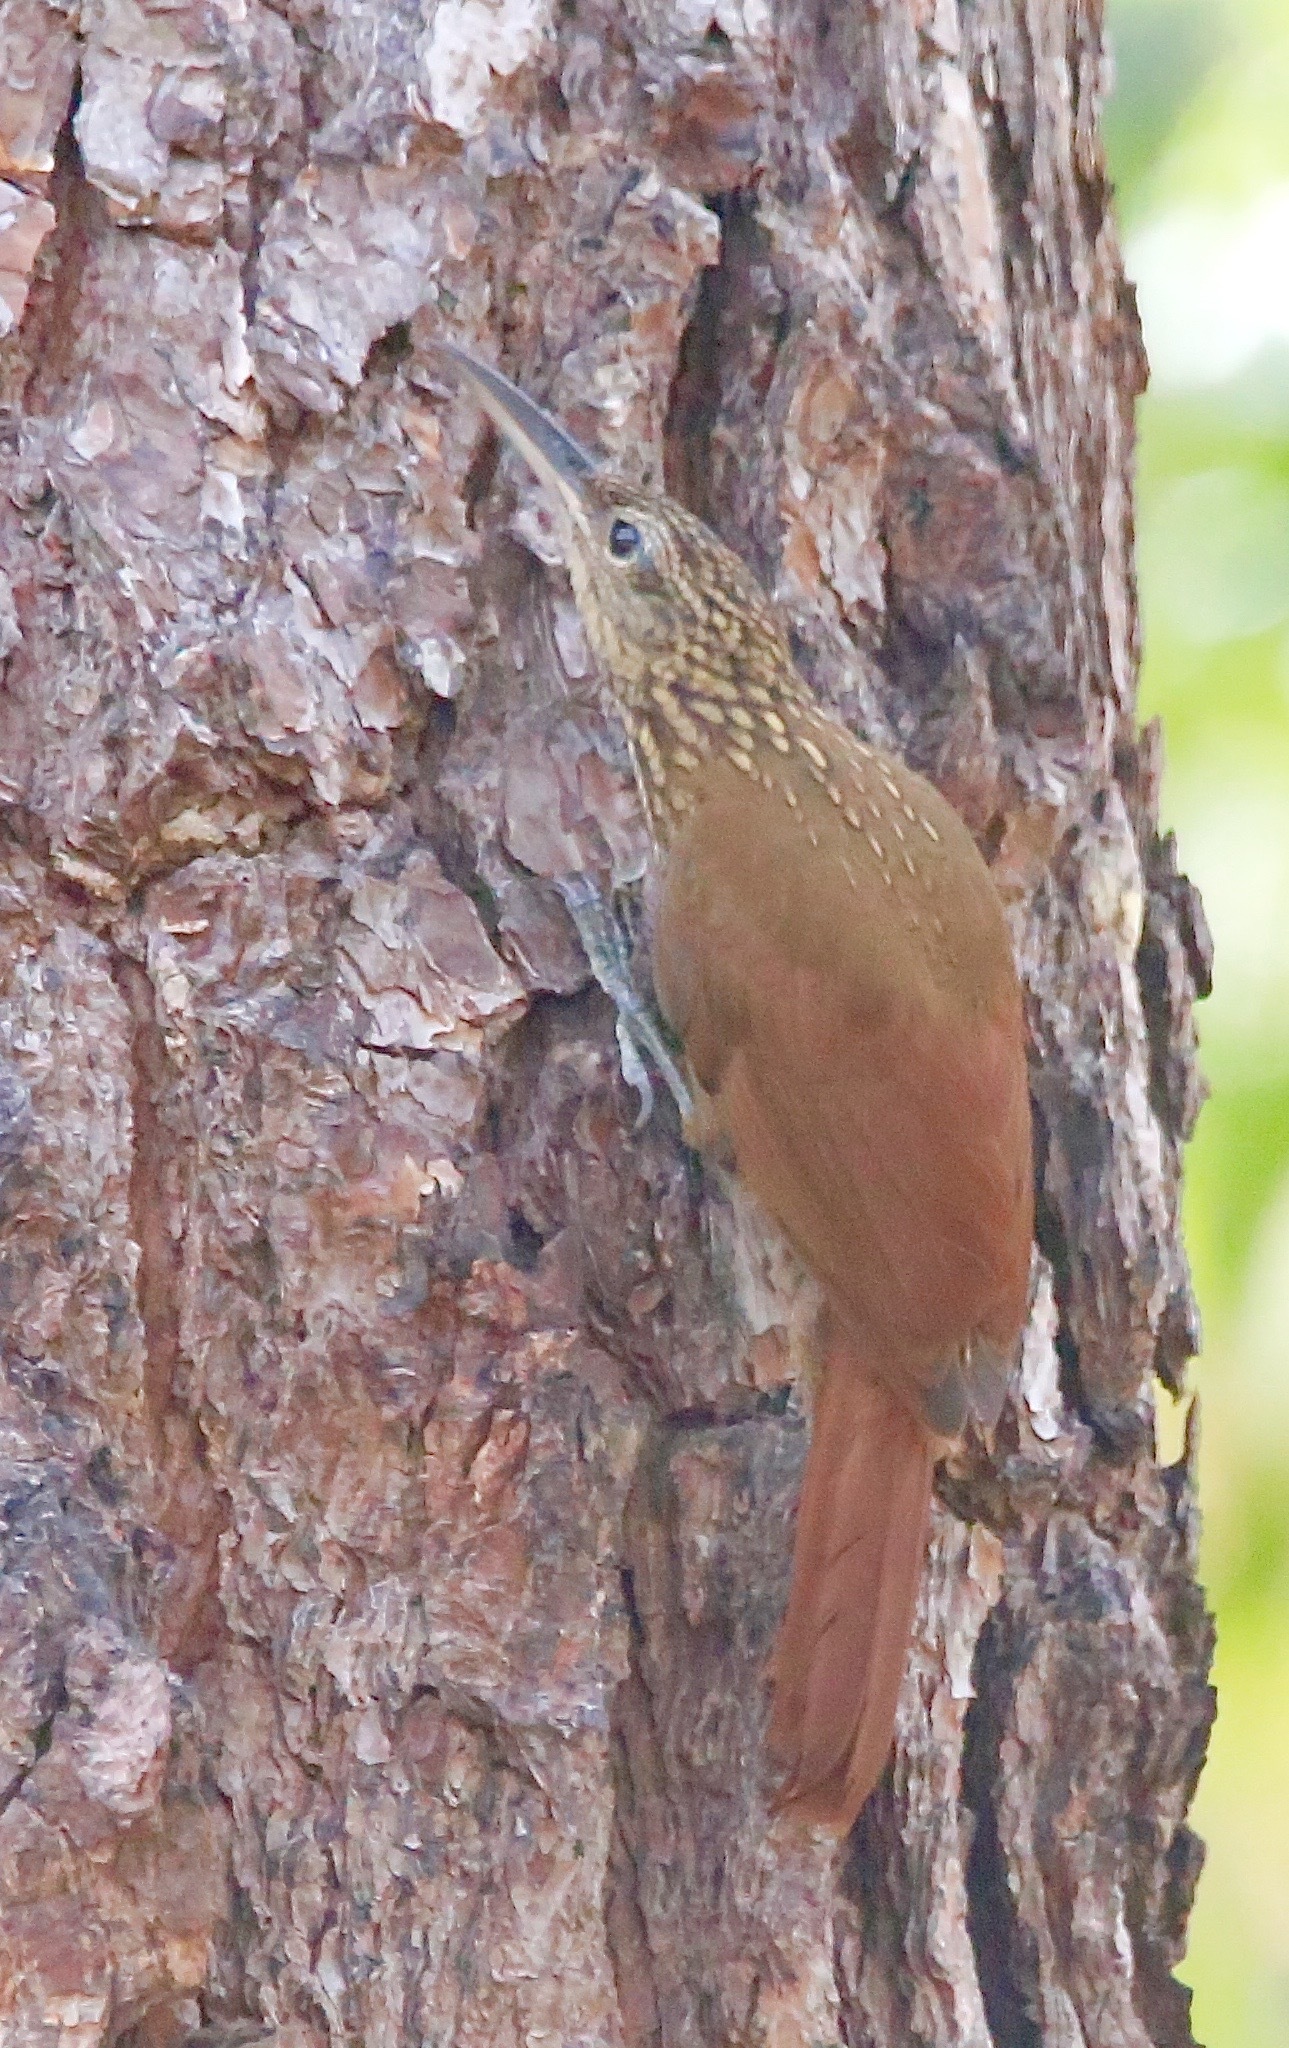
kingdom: Animalia
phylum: Chordata
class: Aves
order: Passeriformes
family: Furnariidae
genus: Xiphorhynchus
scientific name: Xiphorhynchus susurrans
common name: Cocoa woodcreeper
